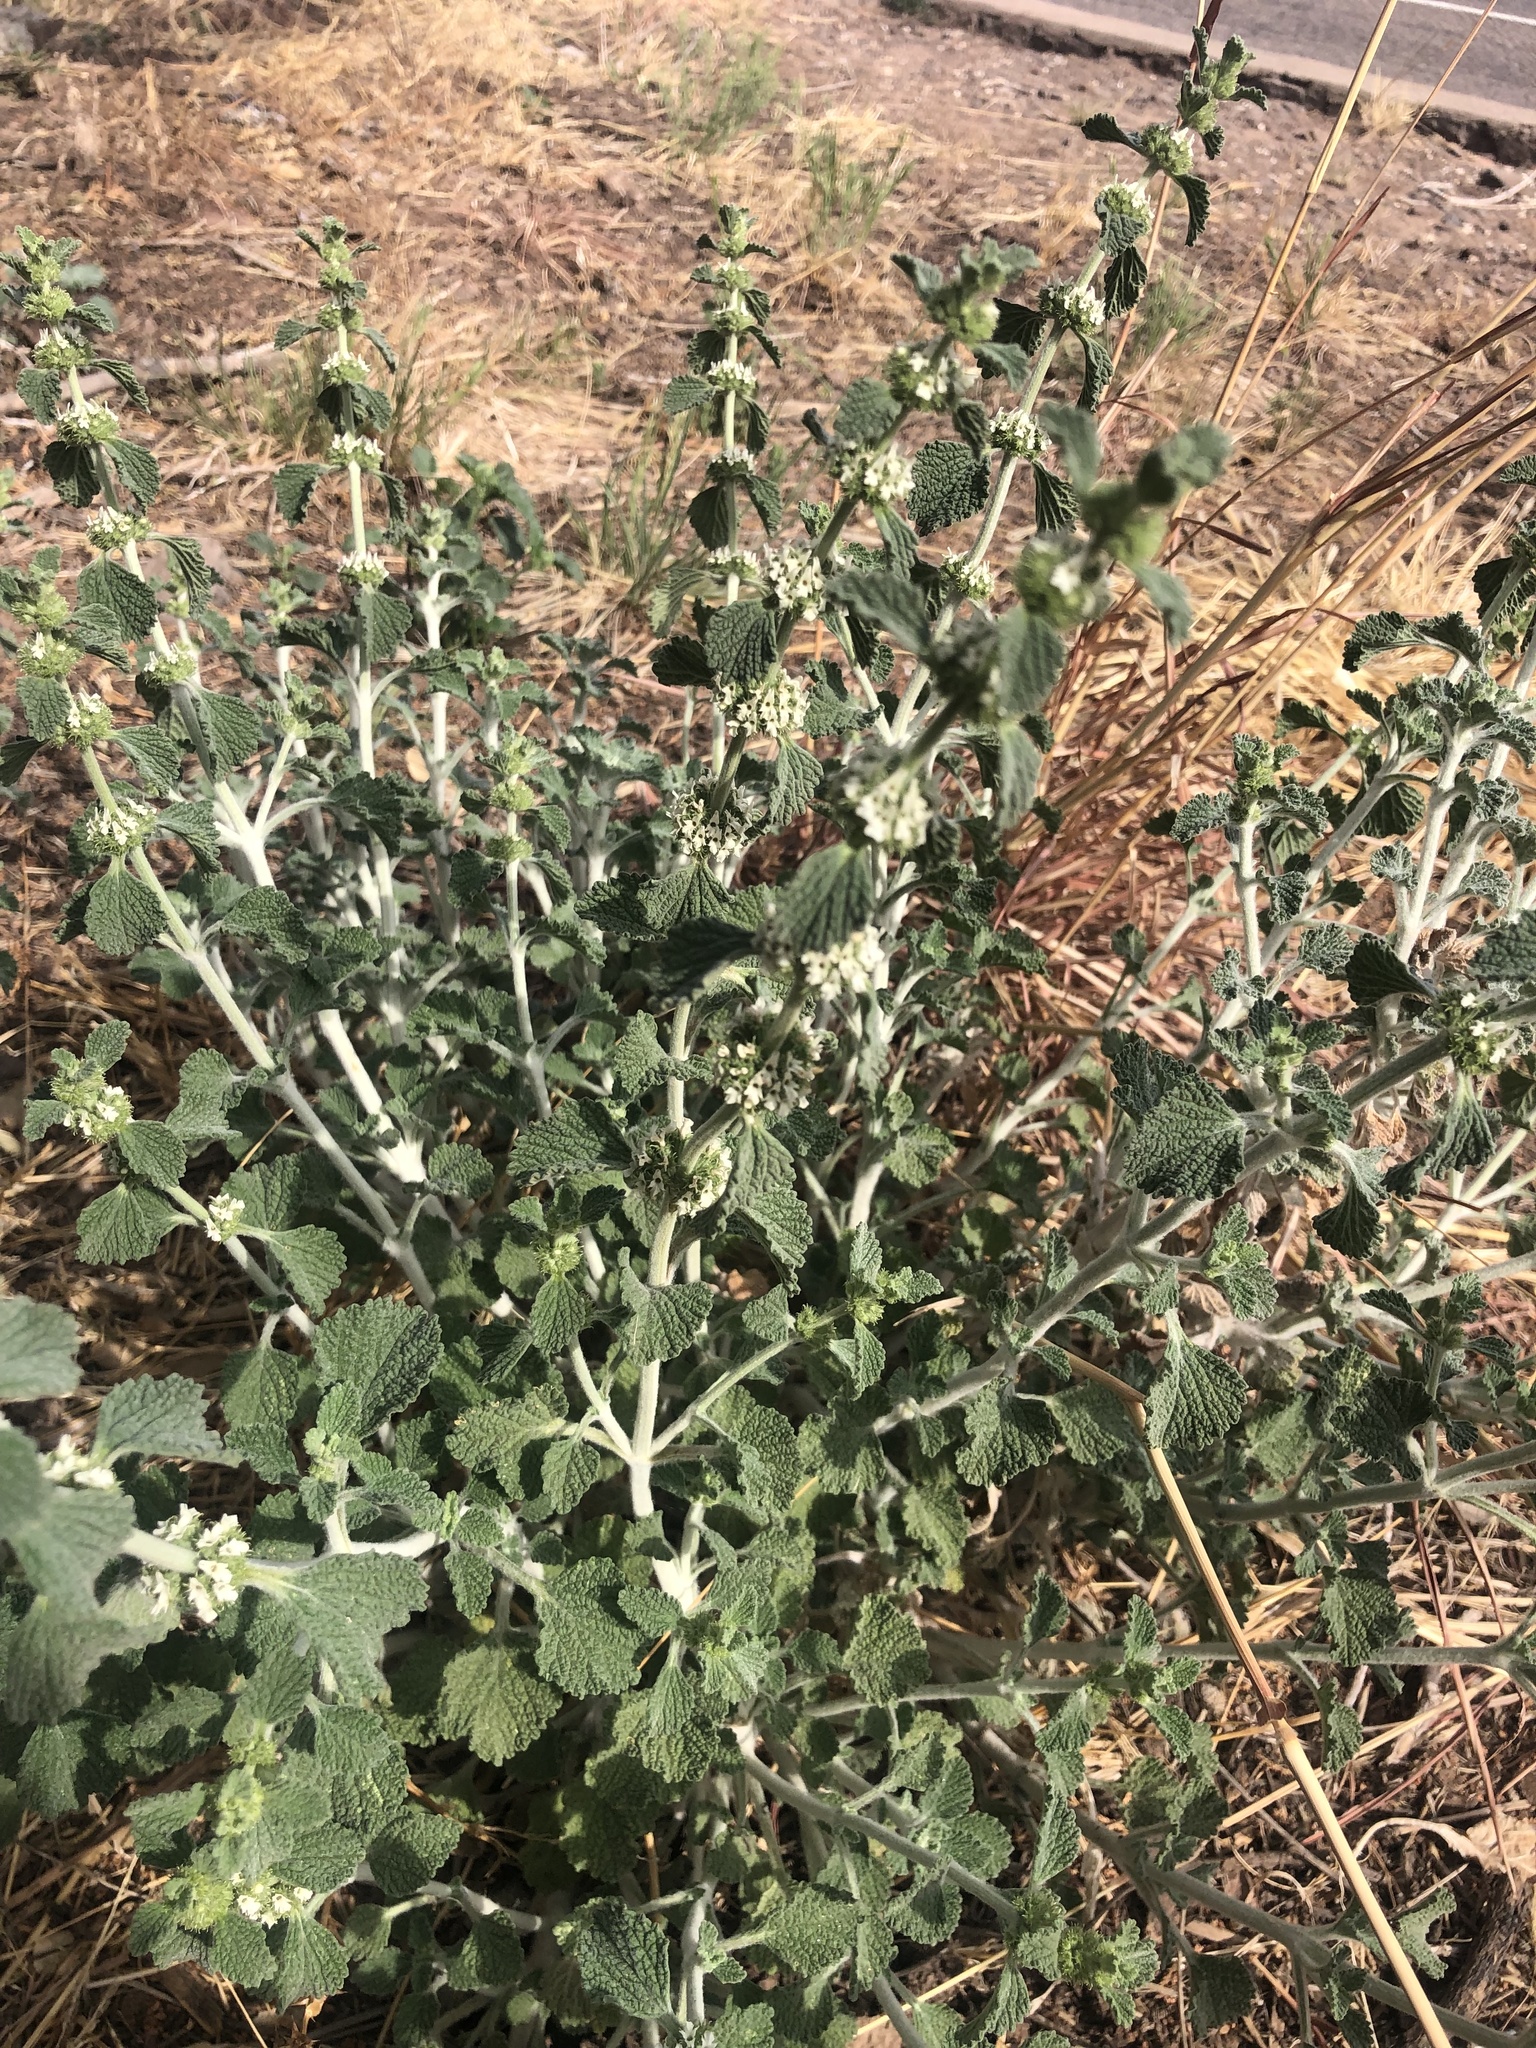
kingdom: Plantae
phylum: Tracheophyta
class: Magnoliopsida
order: Lamiales
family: Lamiaceae
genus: Marrubium
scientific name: Marrubium vulgare
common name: Horehound
